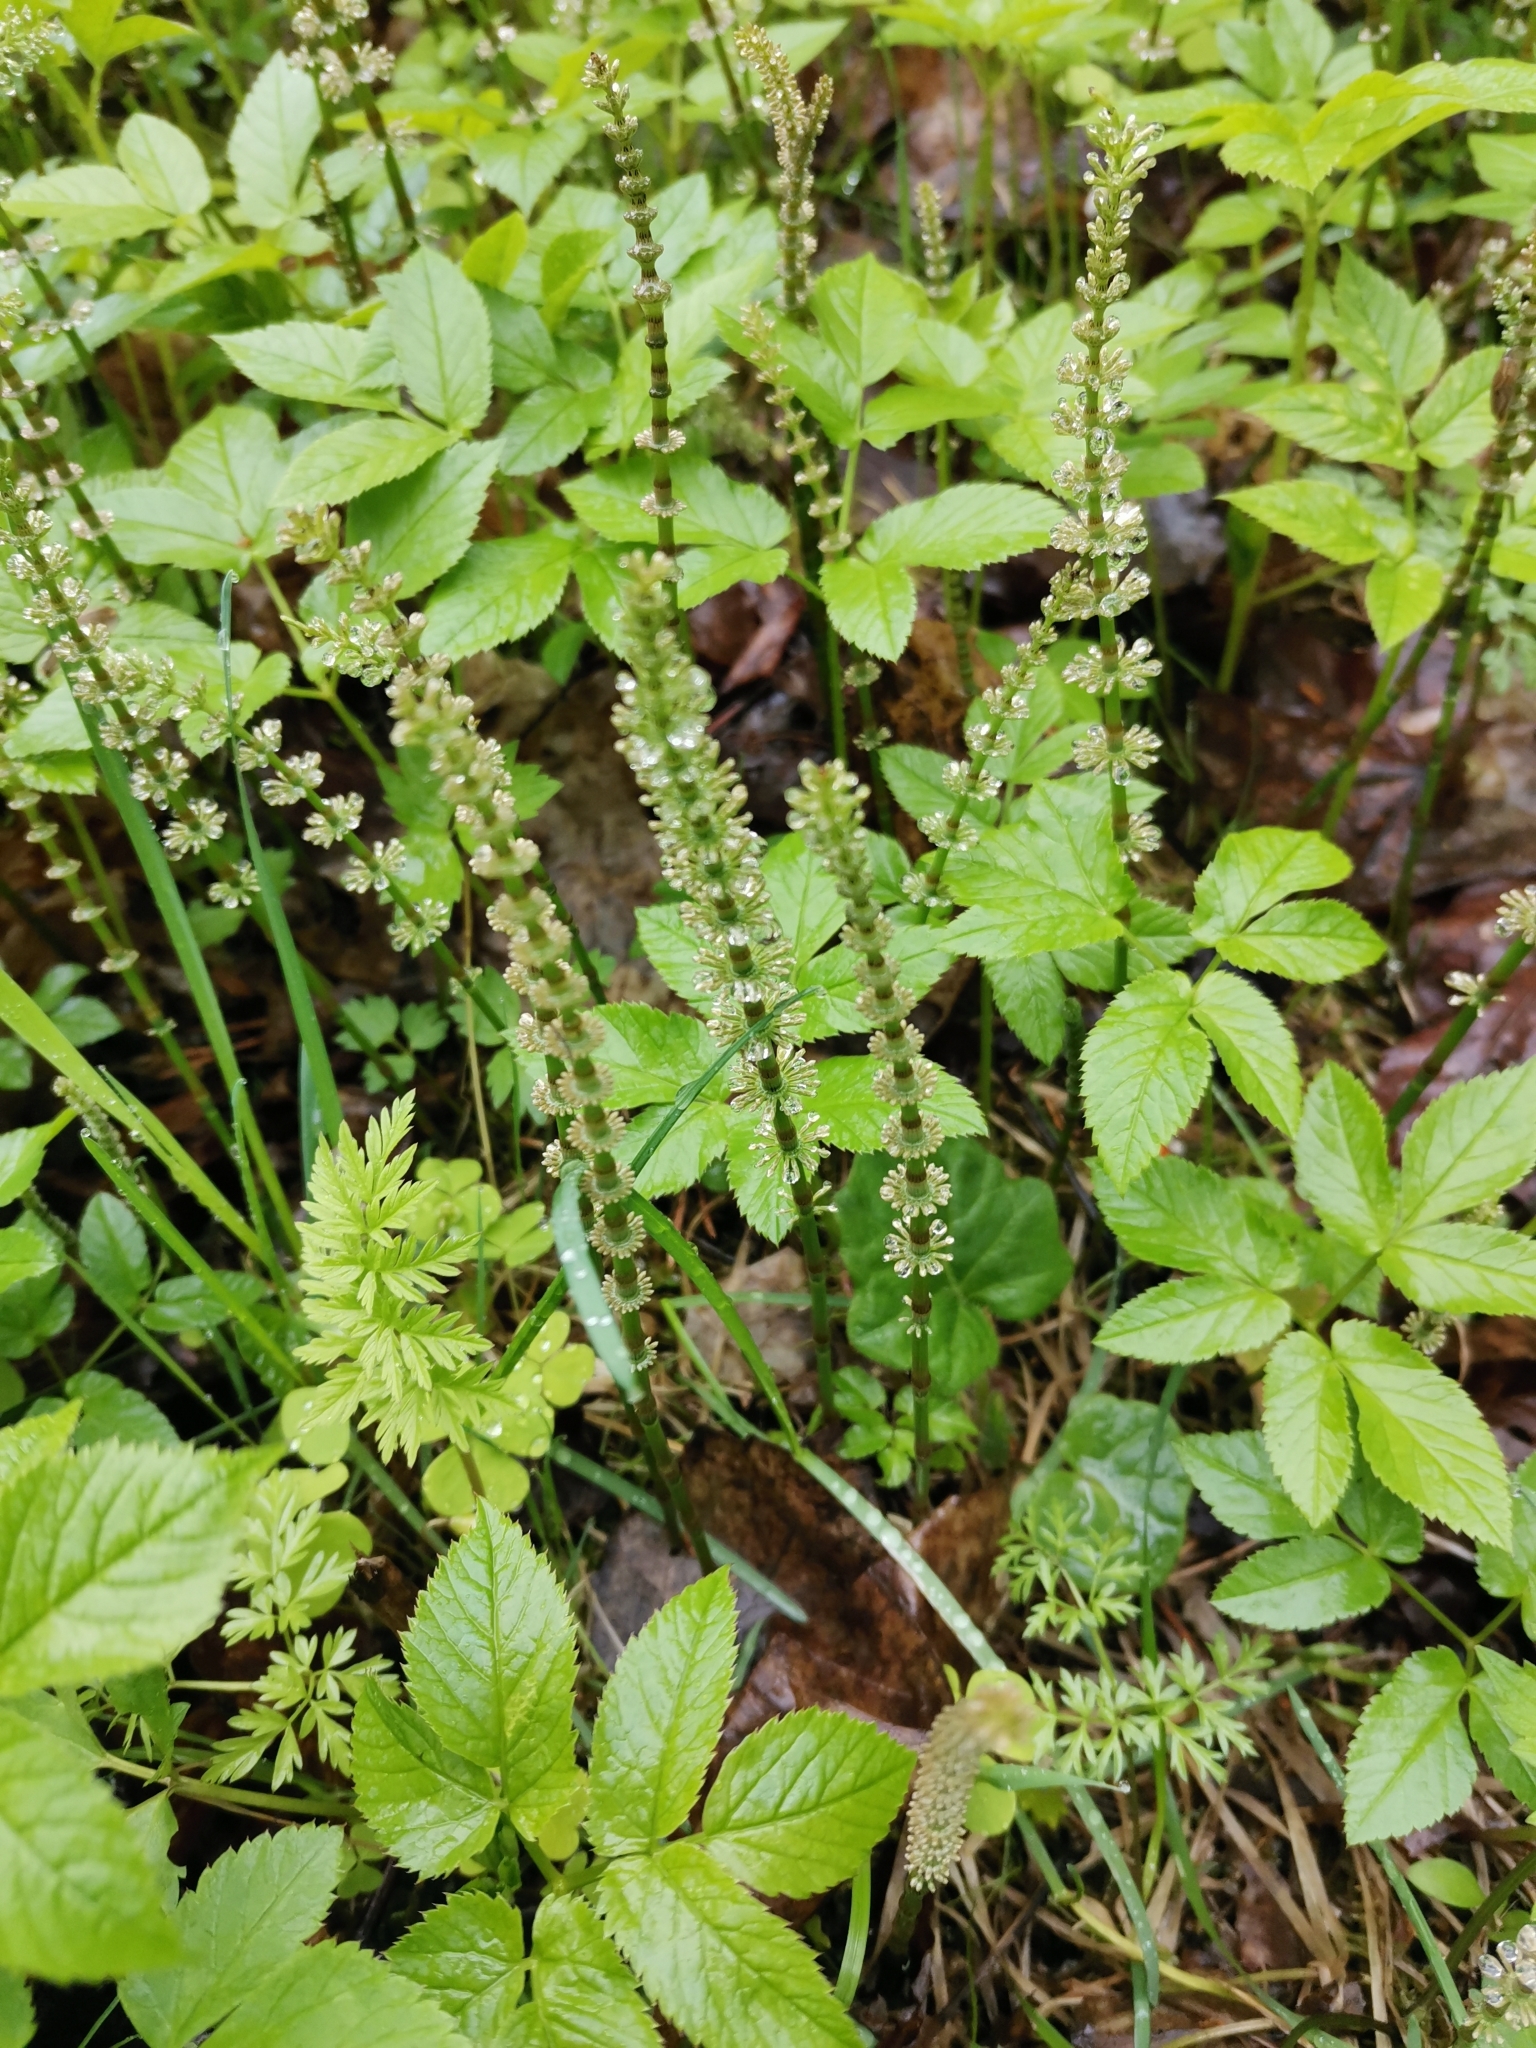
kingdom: Plantae
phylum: Tracheophyta
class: Polypodiopsida
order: Equisetales
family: Equisetaceae
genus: Equisetum
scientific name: Equisetum pratense
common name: Meadow horsetail
